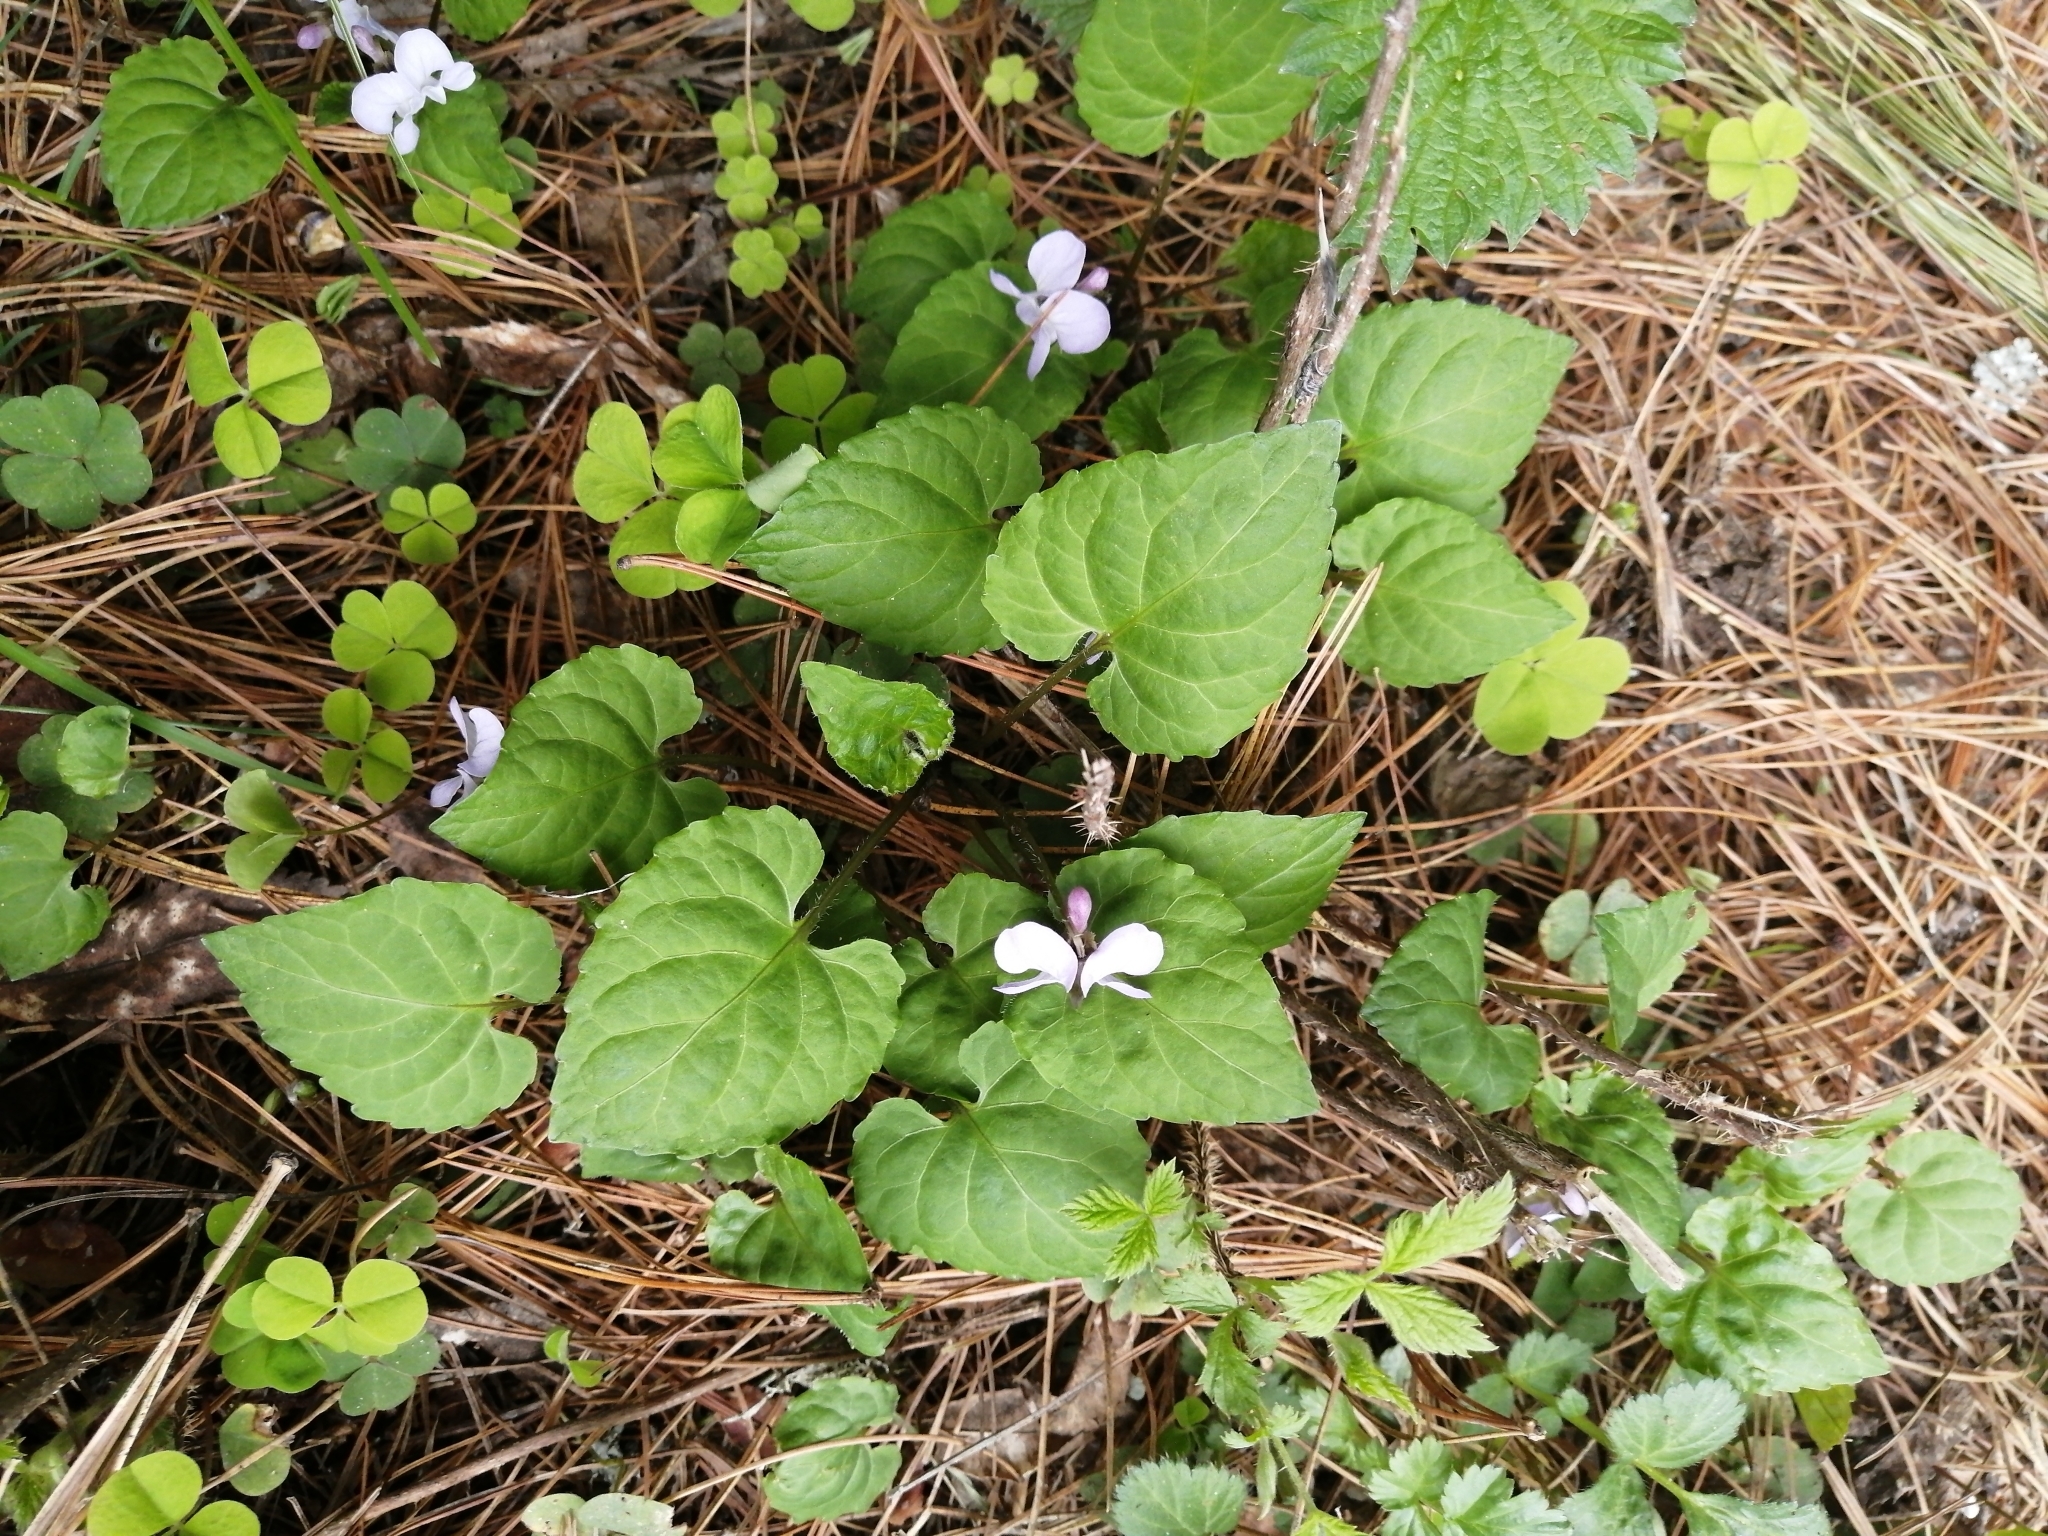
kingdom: Plantae
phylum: Tracheophyta
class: Magnoliopsida
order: Malpighiales
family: Violaceae
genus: Viola
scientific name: Viola selkirkii
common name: Selkirk's violet
